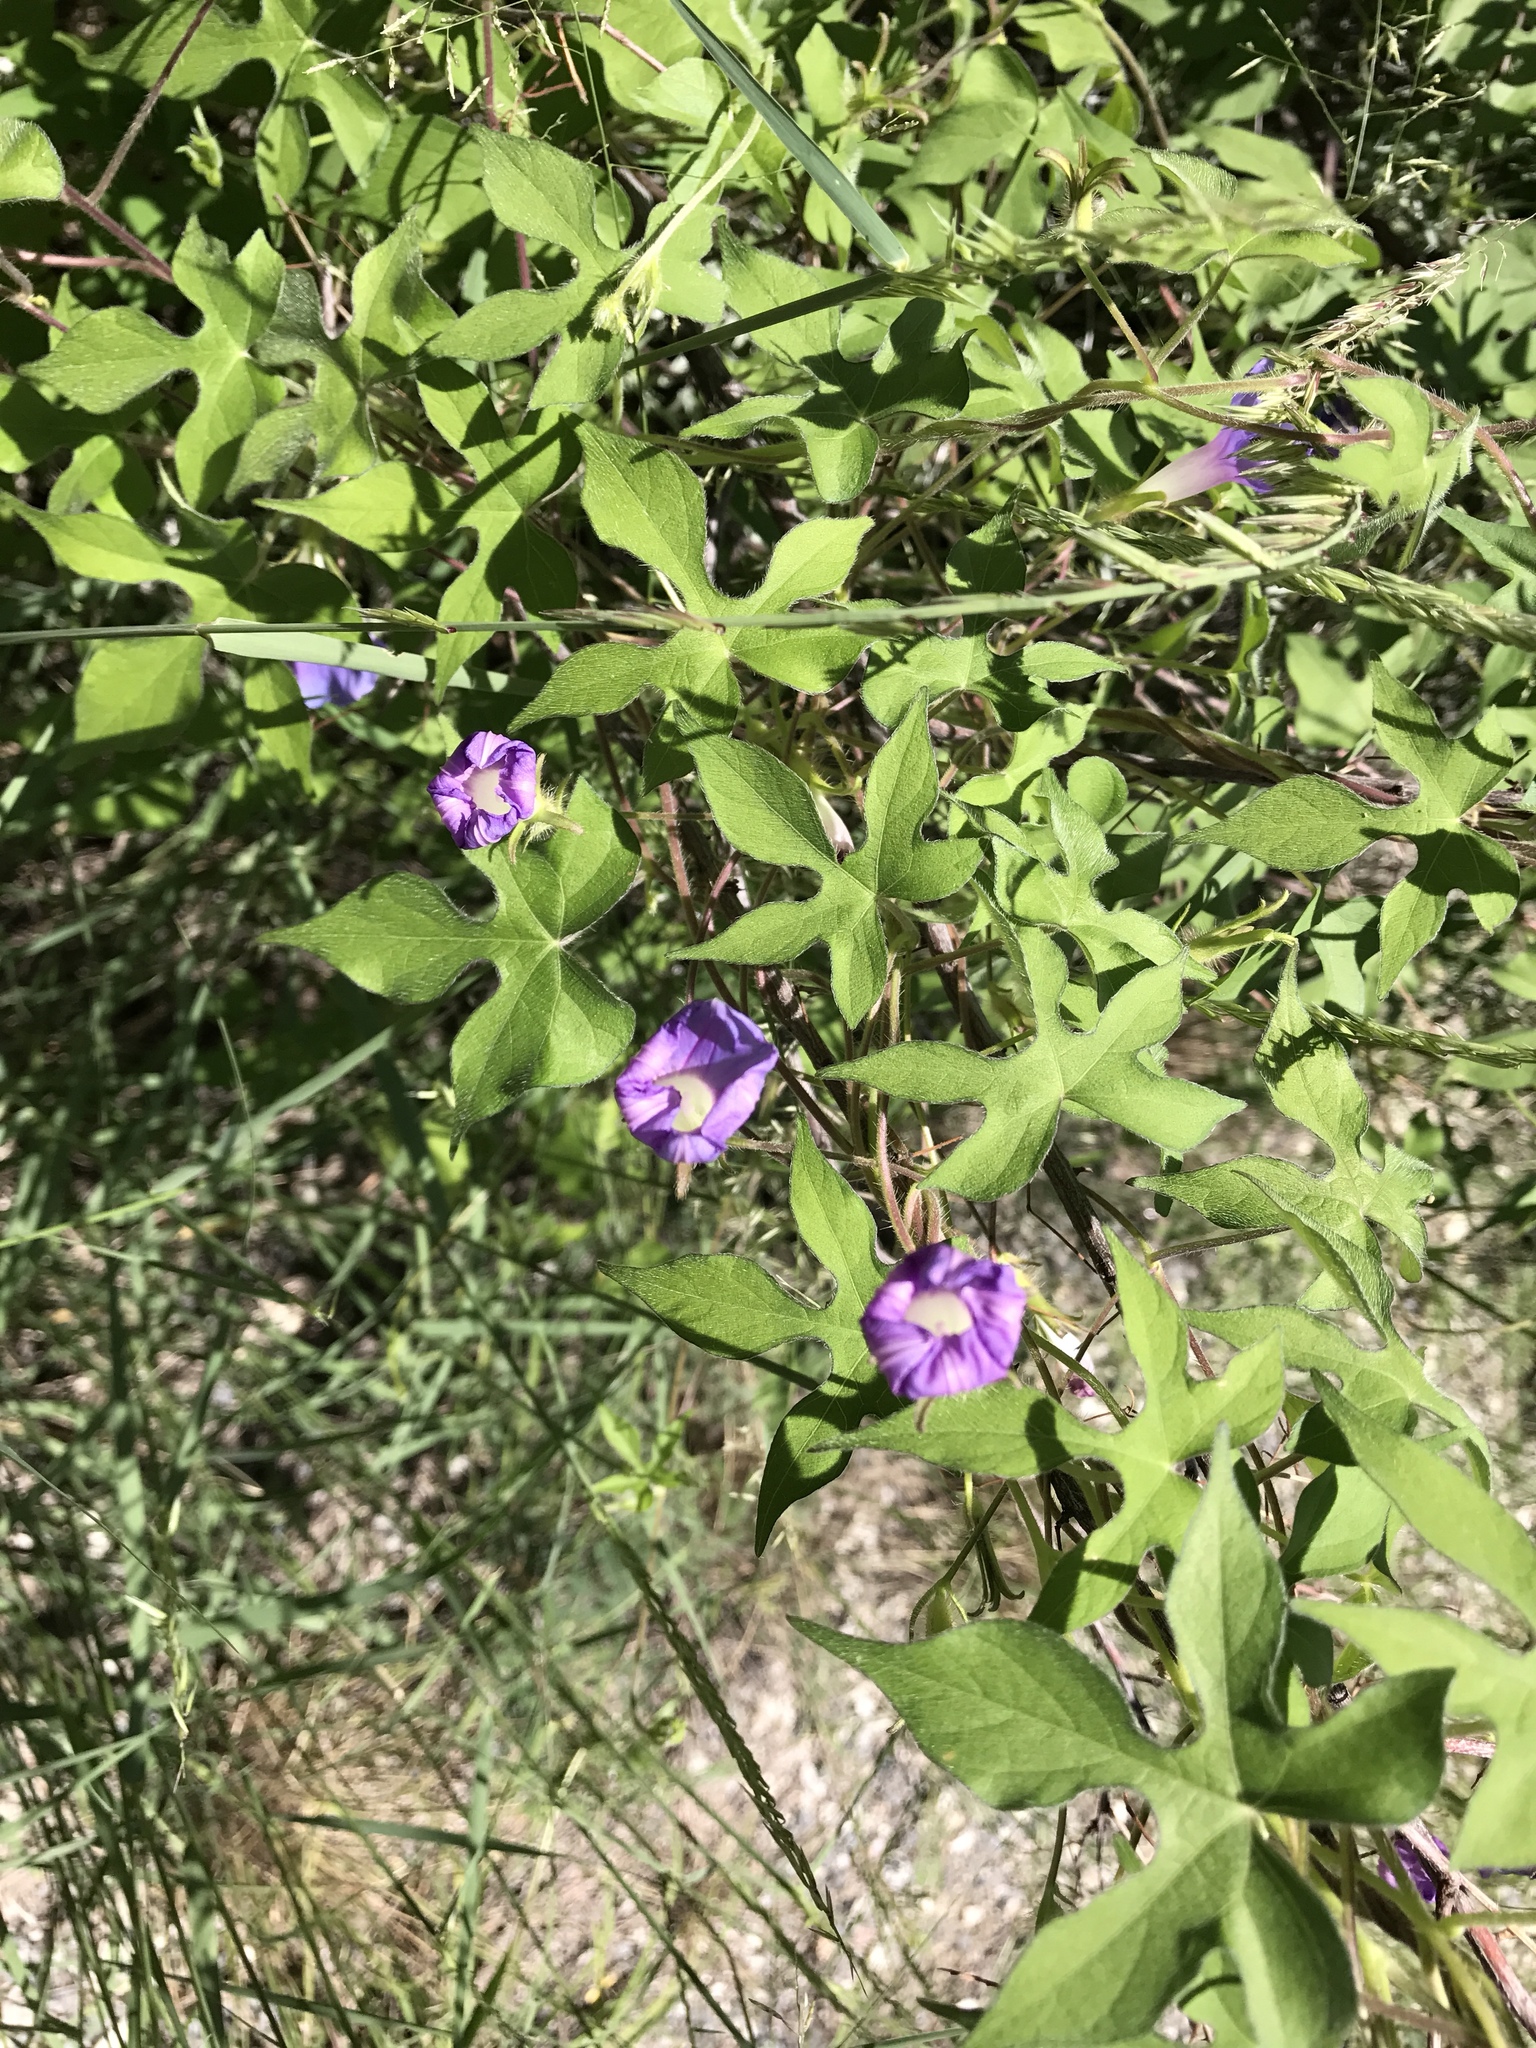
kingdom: Plantae
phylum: Tracheophyta
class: Magnoliopsida
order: Solanales
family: Convolvulaceae
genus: Ipomoea
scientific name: Ipomoea hederacea
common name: Ivy-leaved morning-glory
